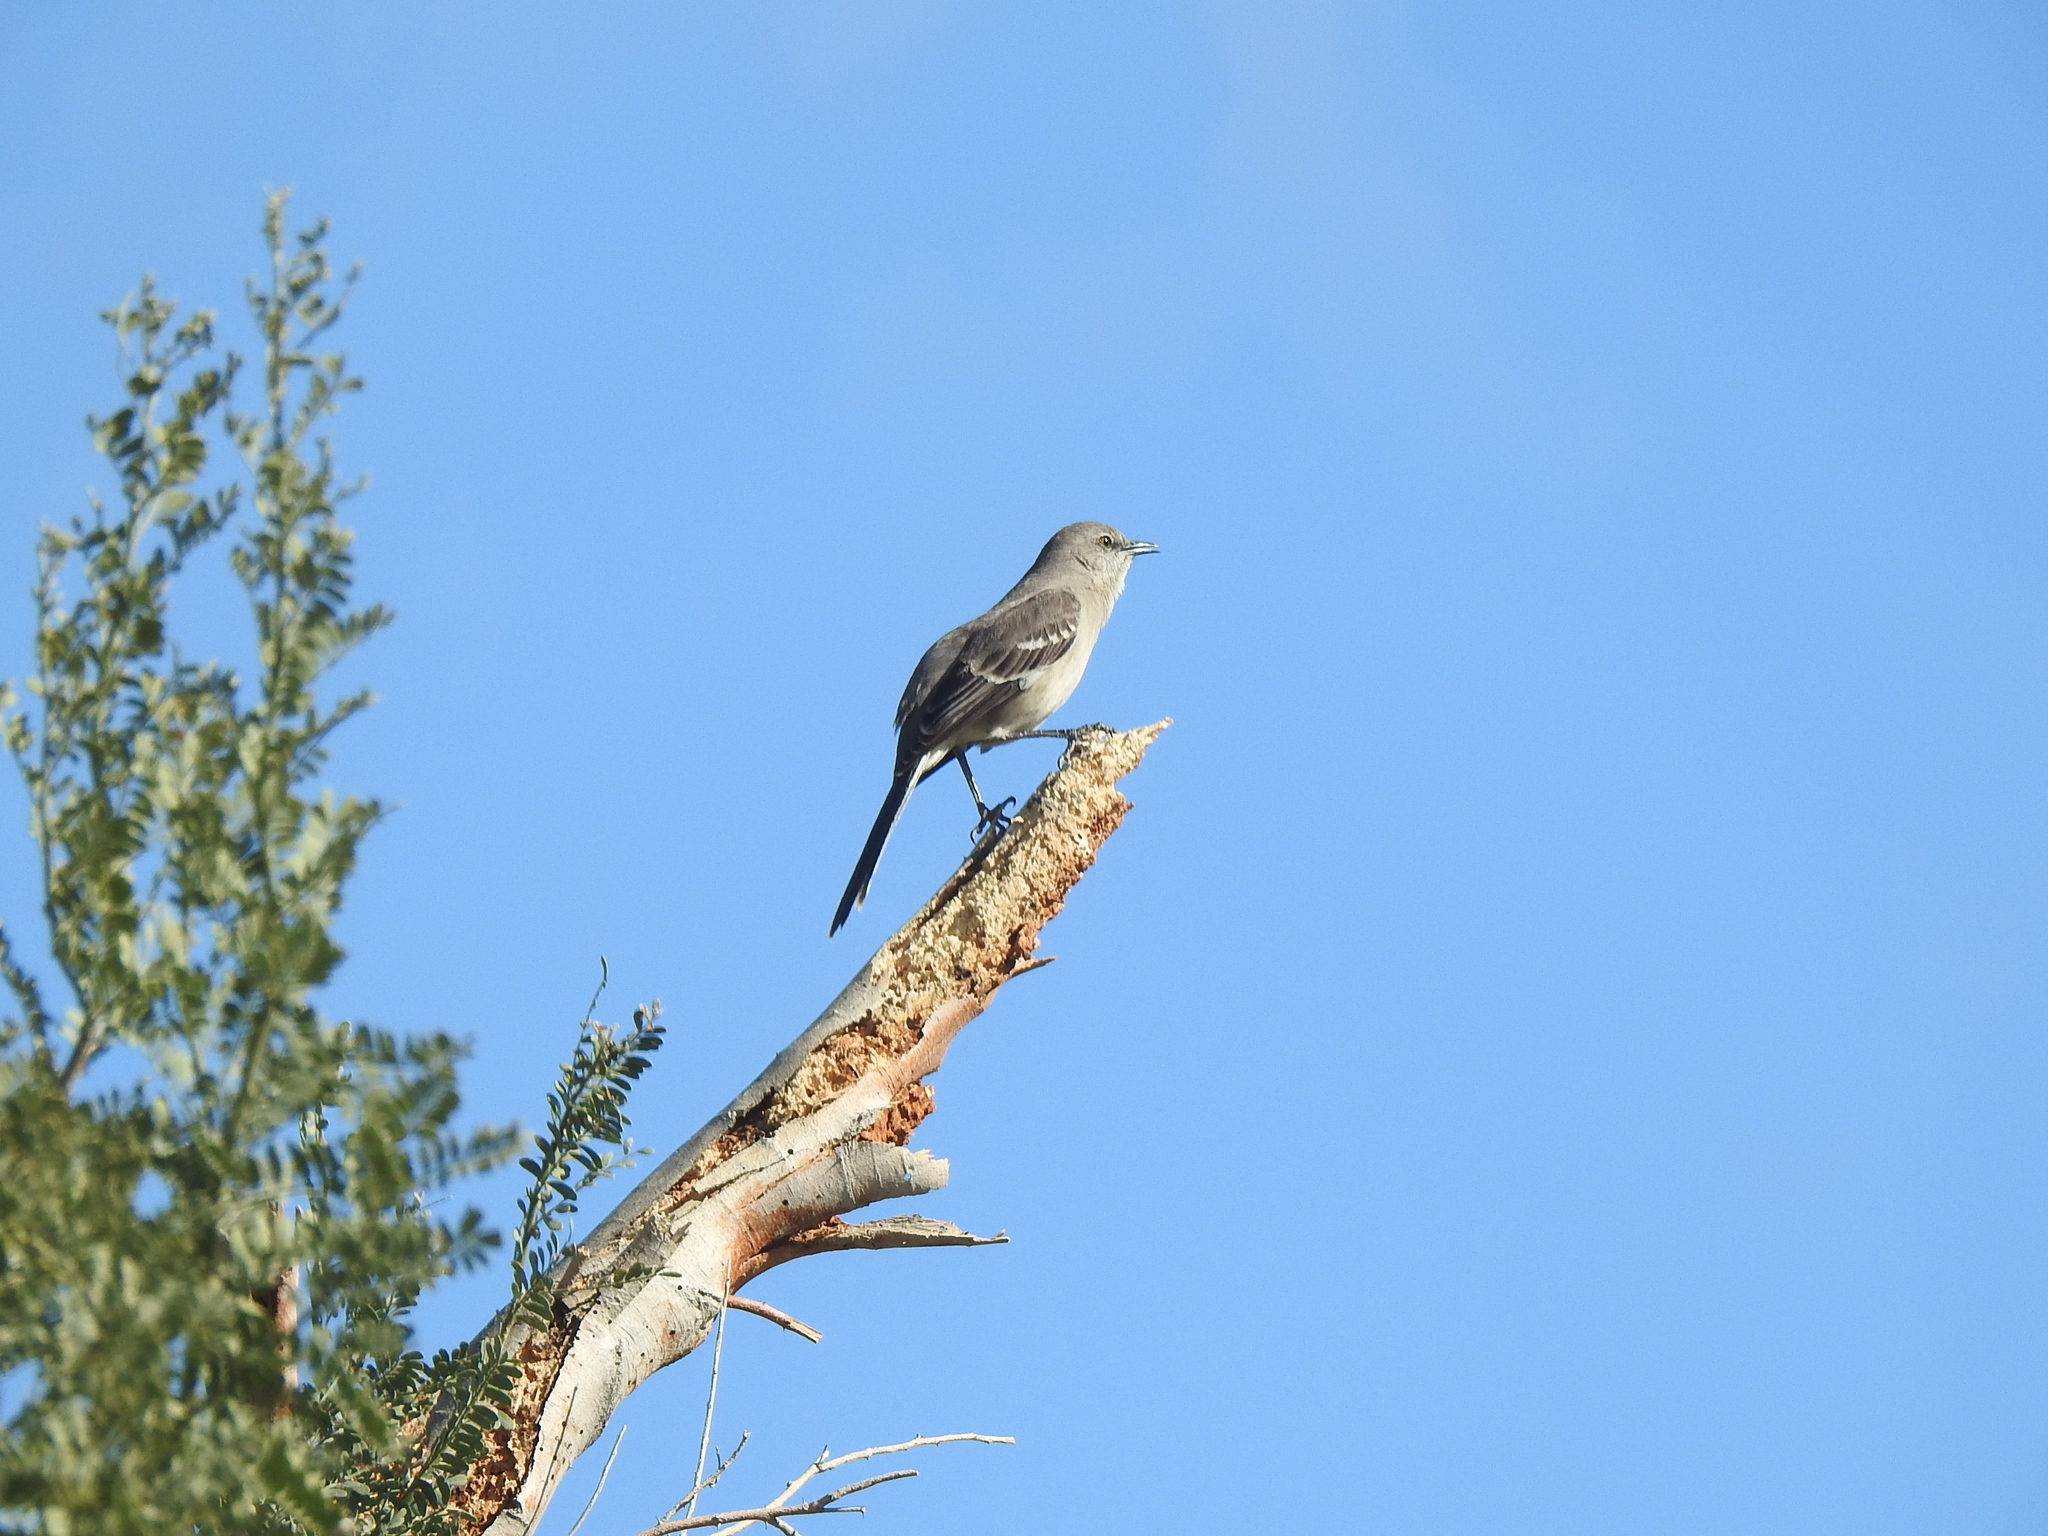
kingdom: Animalia
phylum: Chordata
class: Aves
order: Passeriformes
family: Mimidae
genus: Mimus
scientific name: Mimus polyglottos
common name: Northern mockingbird
